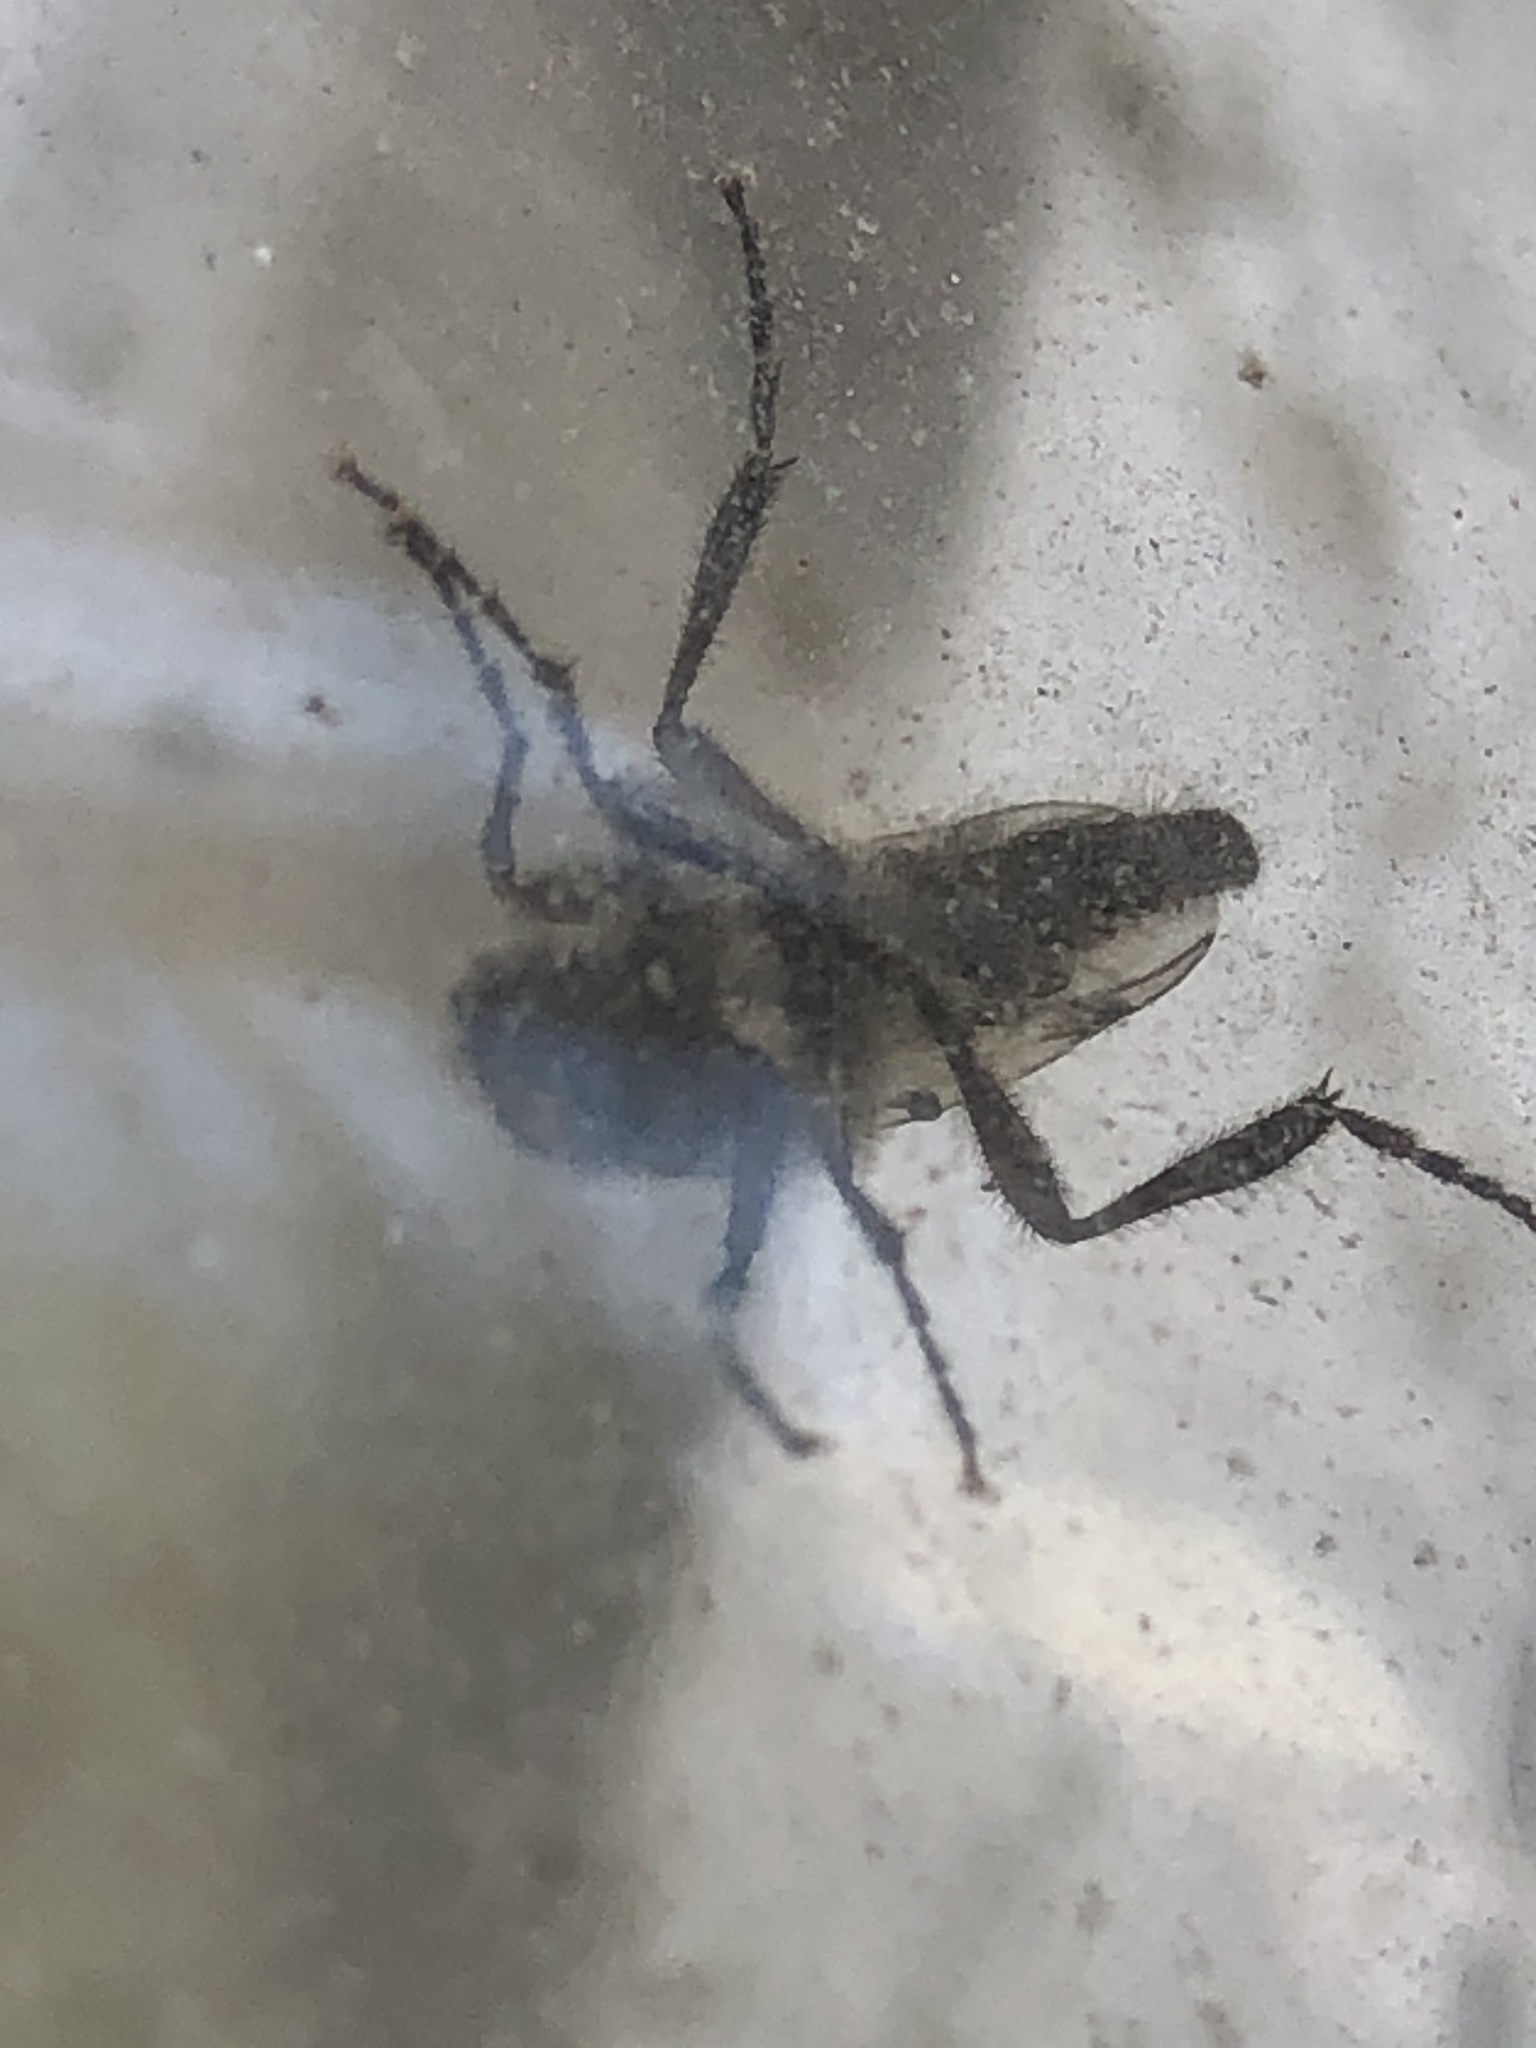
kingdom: Animalia
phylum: Arthropoda
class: Insecta
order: Diptera
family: Bibionidae
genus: Bibio
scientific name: Bibio albipennis
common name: White-winged march fly
